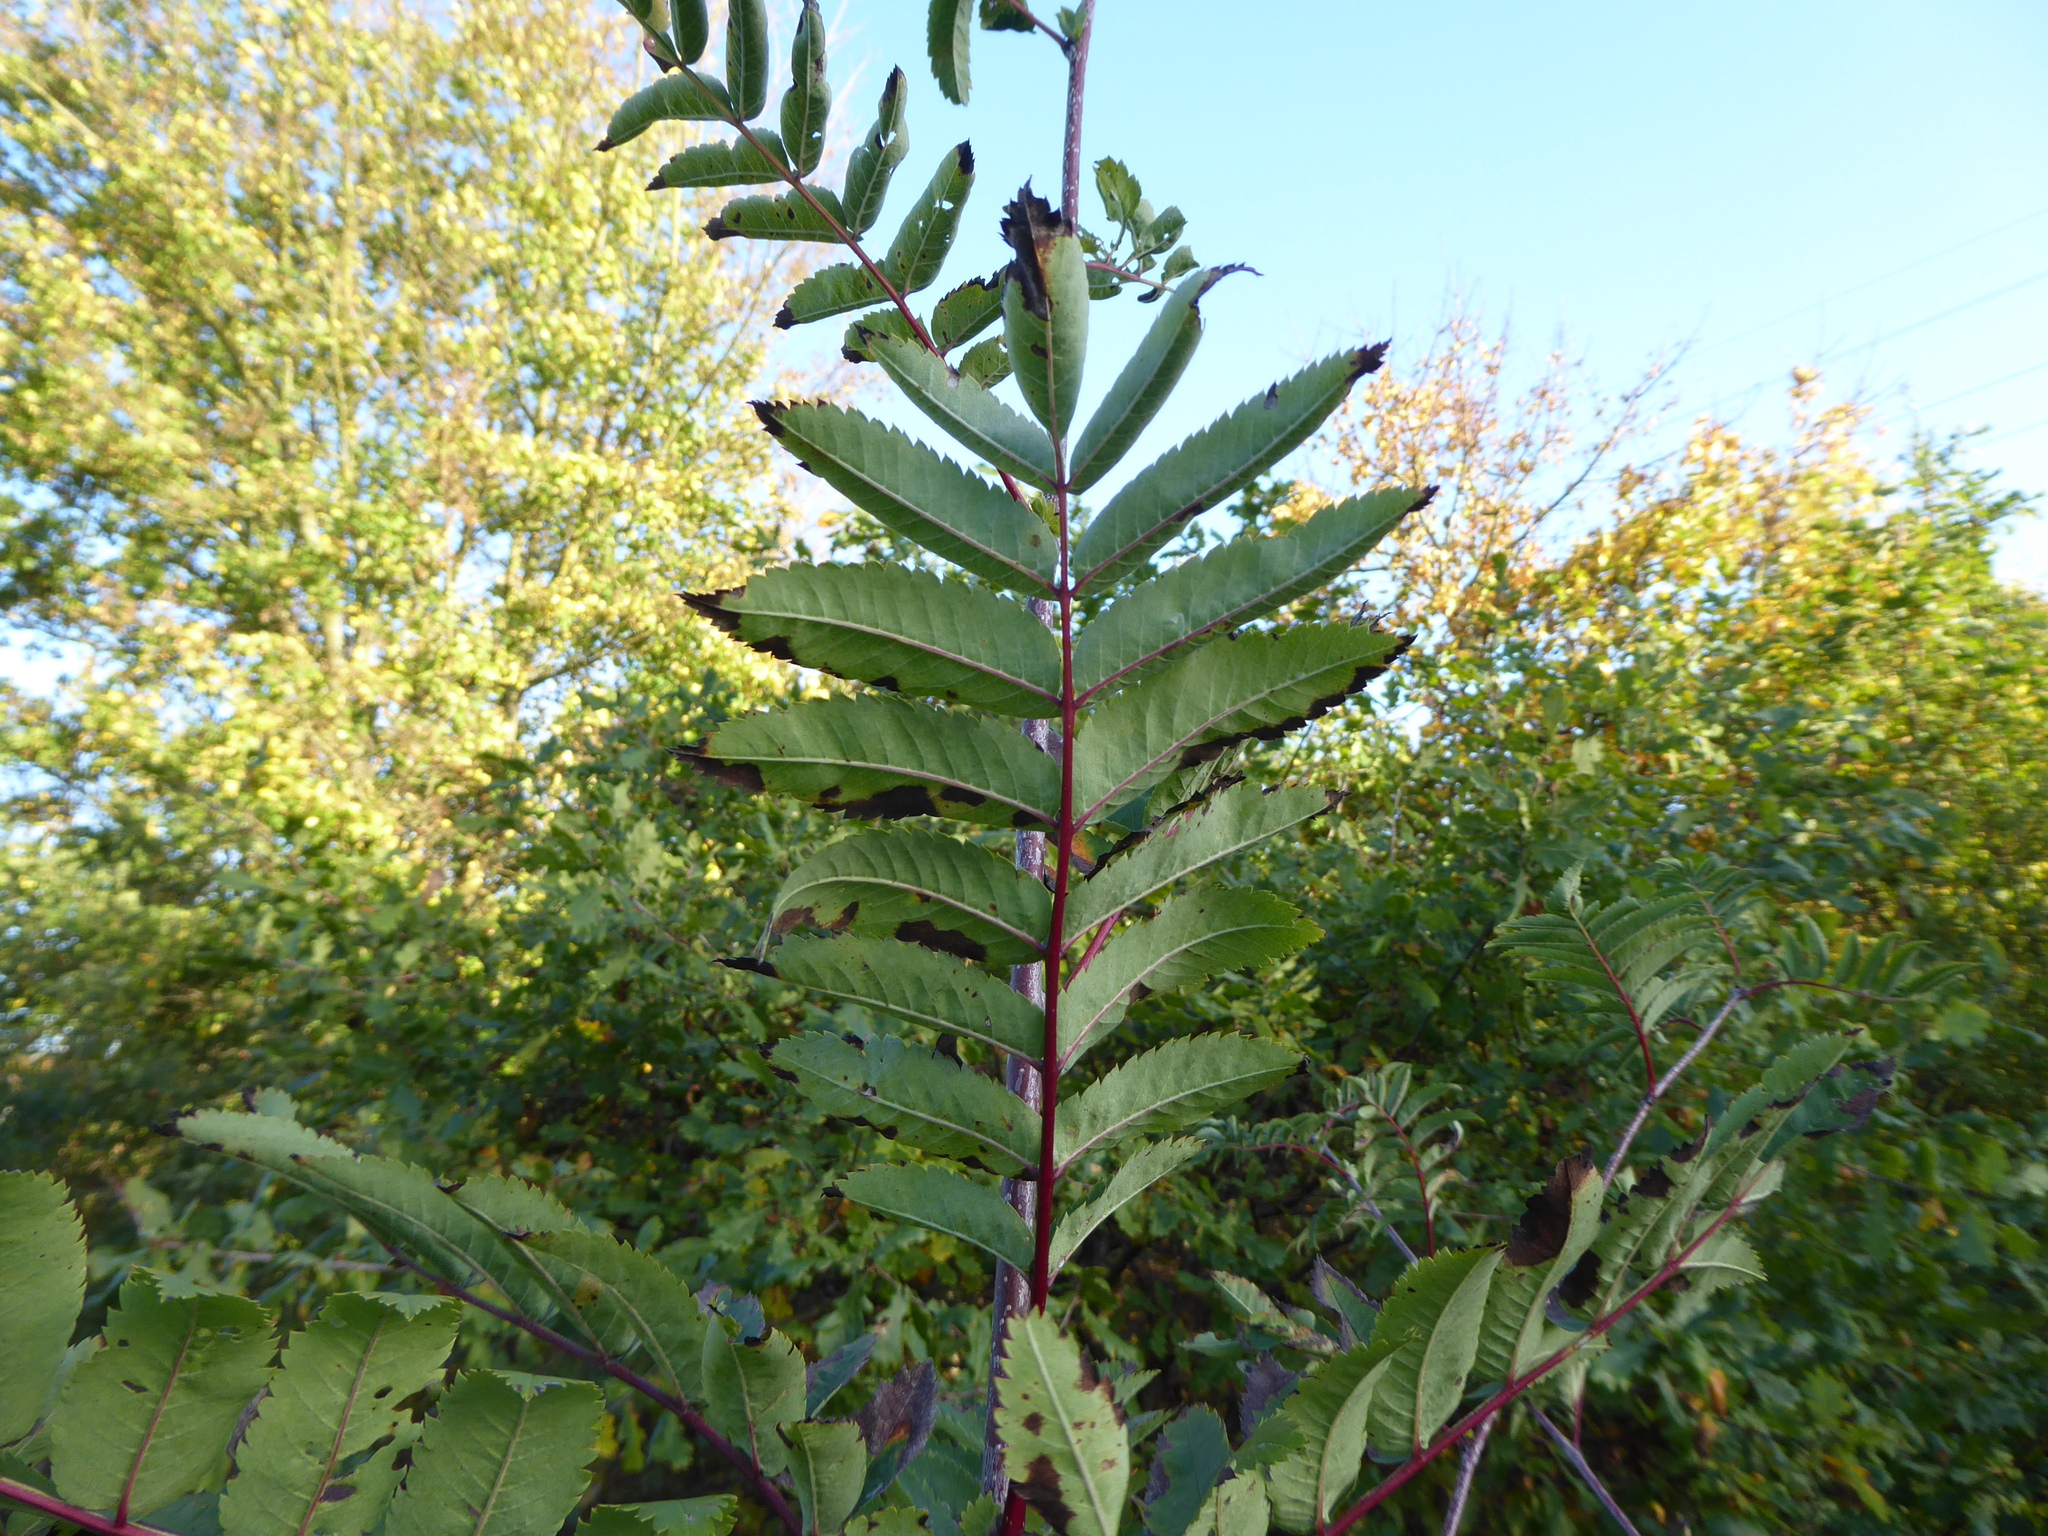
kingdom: Plantae
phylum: Tracheophyta
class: Magnoliopsida
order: Rosales
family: Rosaceae
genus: Sorbus
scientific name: Sorbus aucuparia
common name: Rowan
